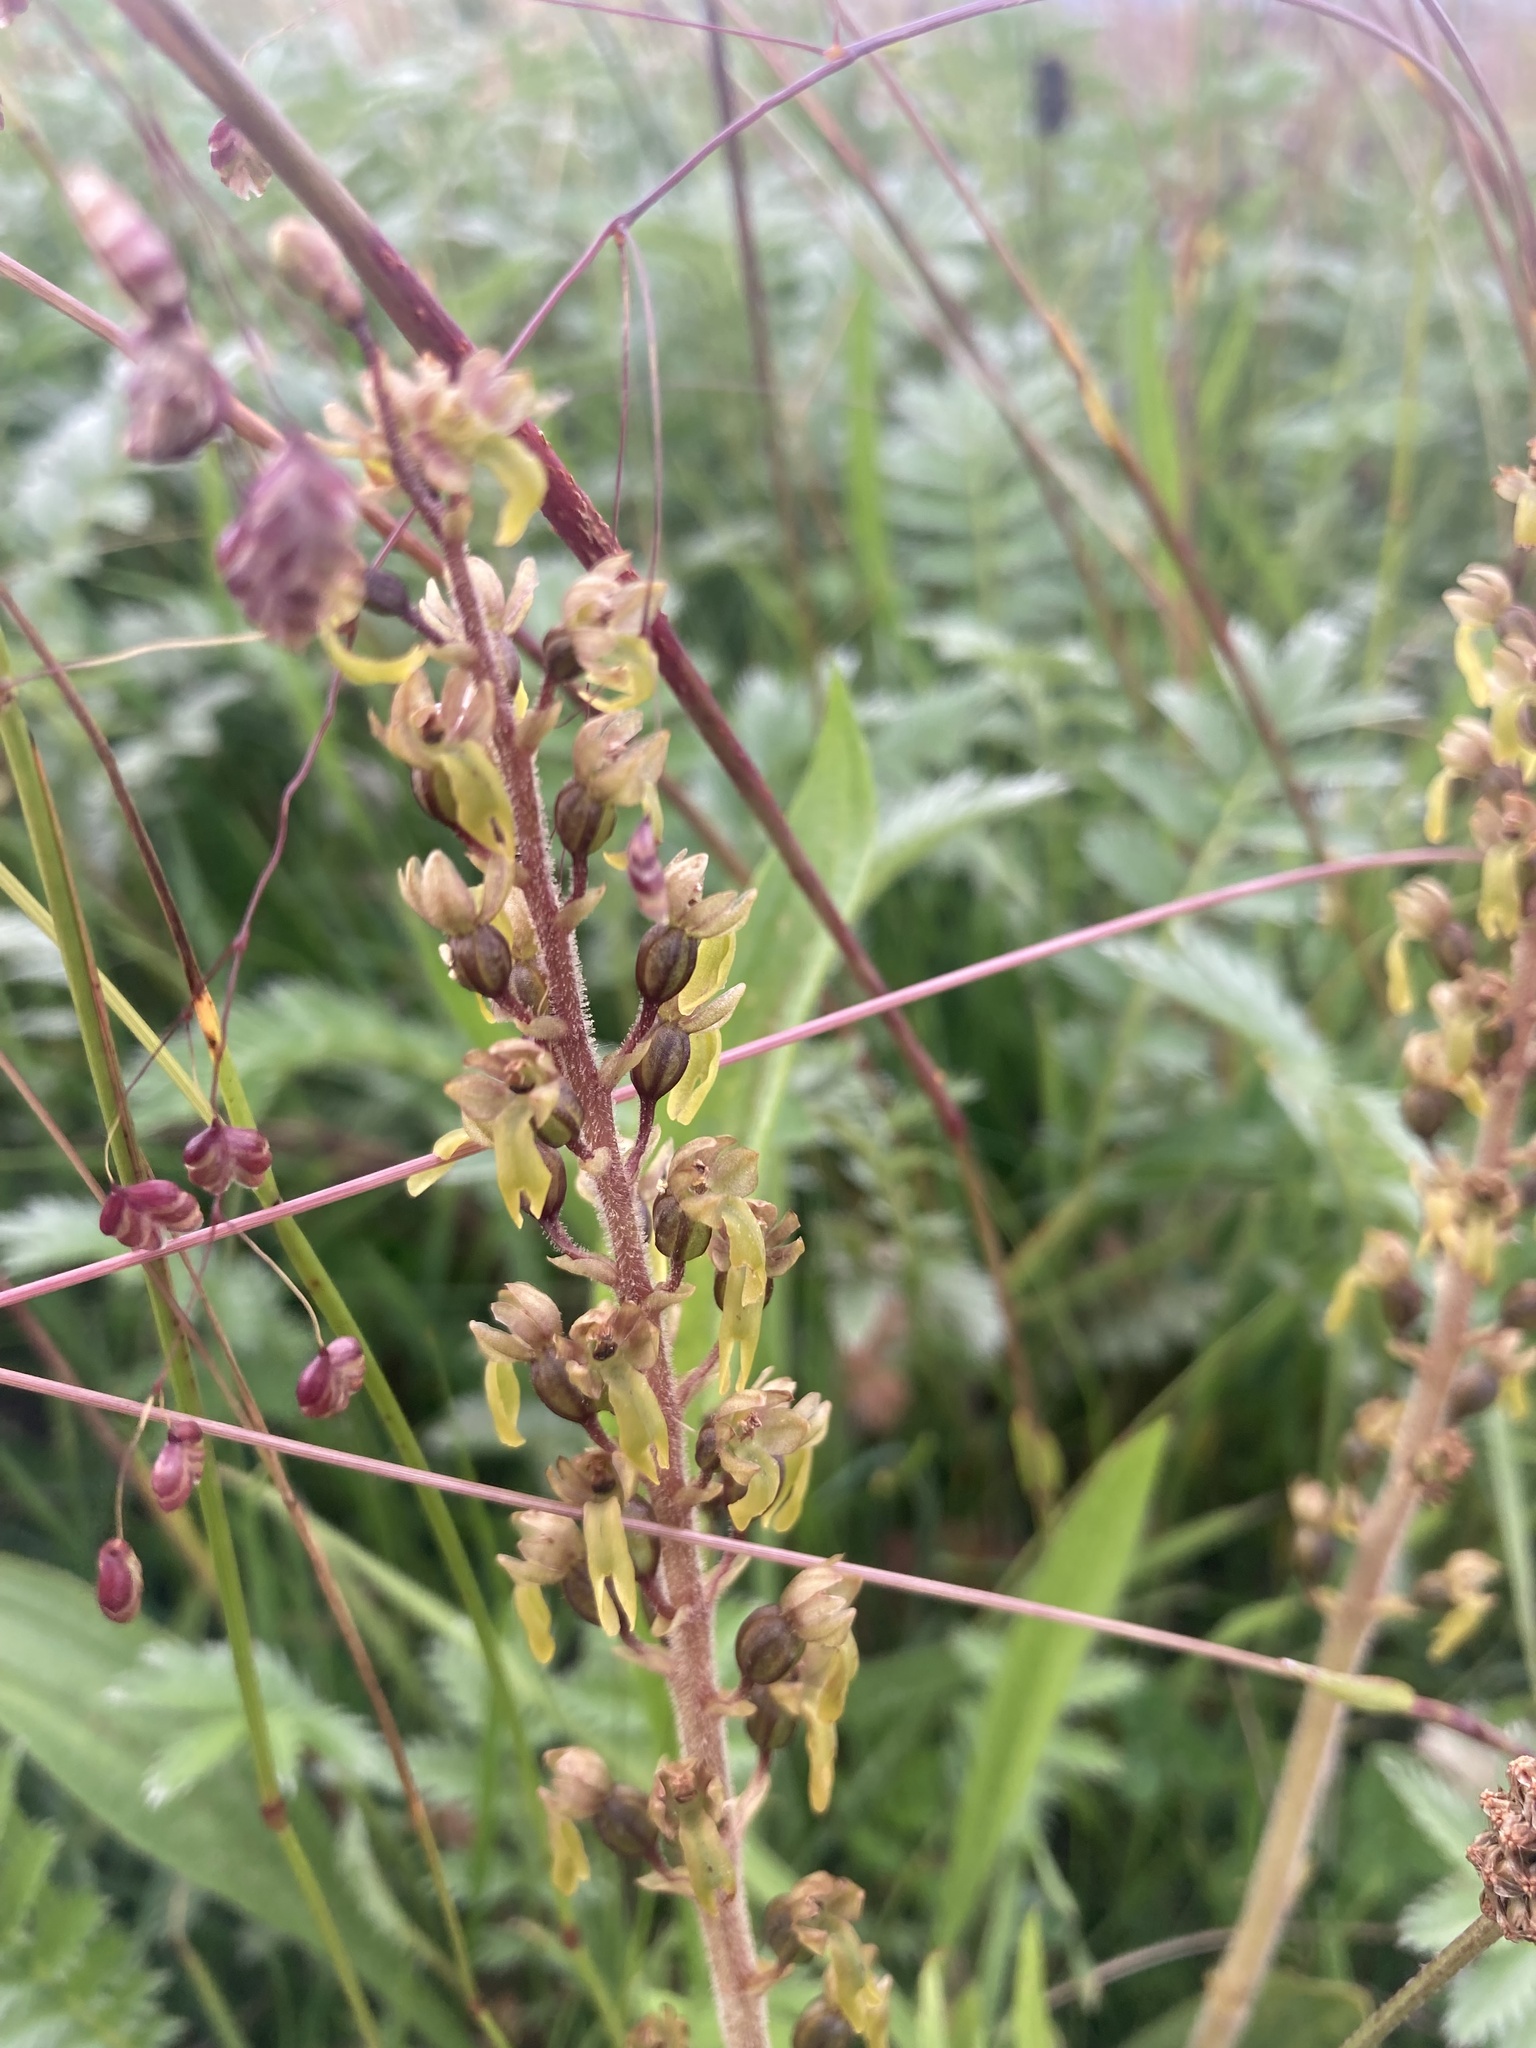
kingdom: Plantae
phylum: Tracheophyta
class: Liliopsida
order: Asparagales
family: Orchidaceae
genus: Neottia
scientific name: Neottia ovata
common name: Common twayblade
